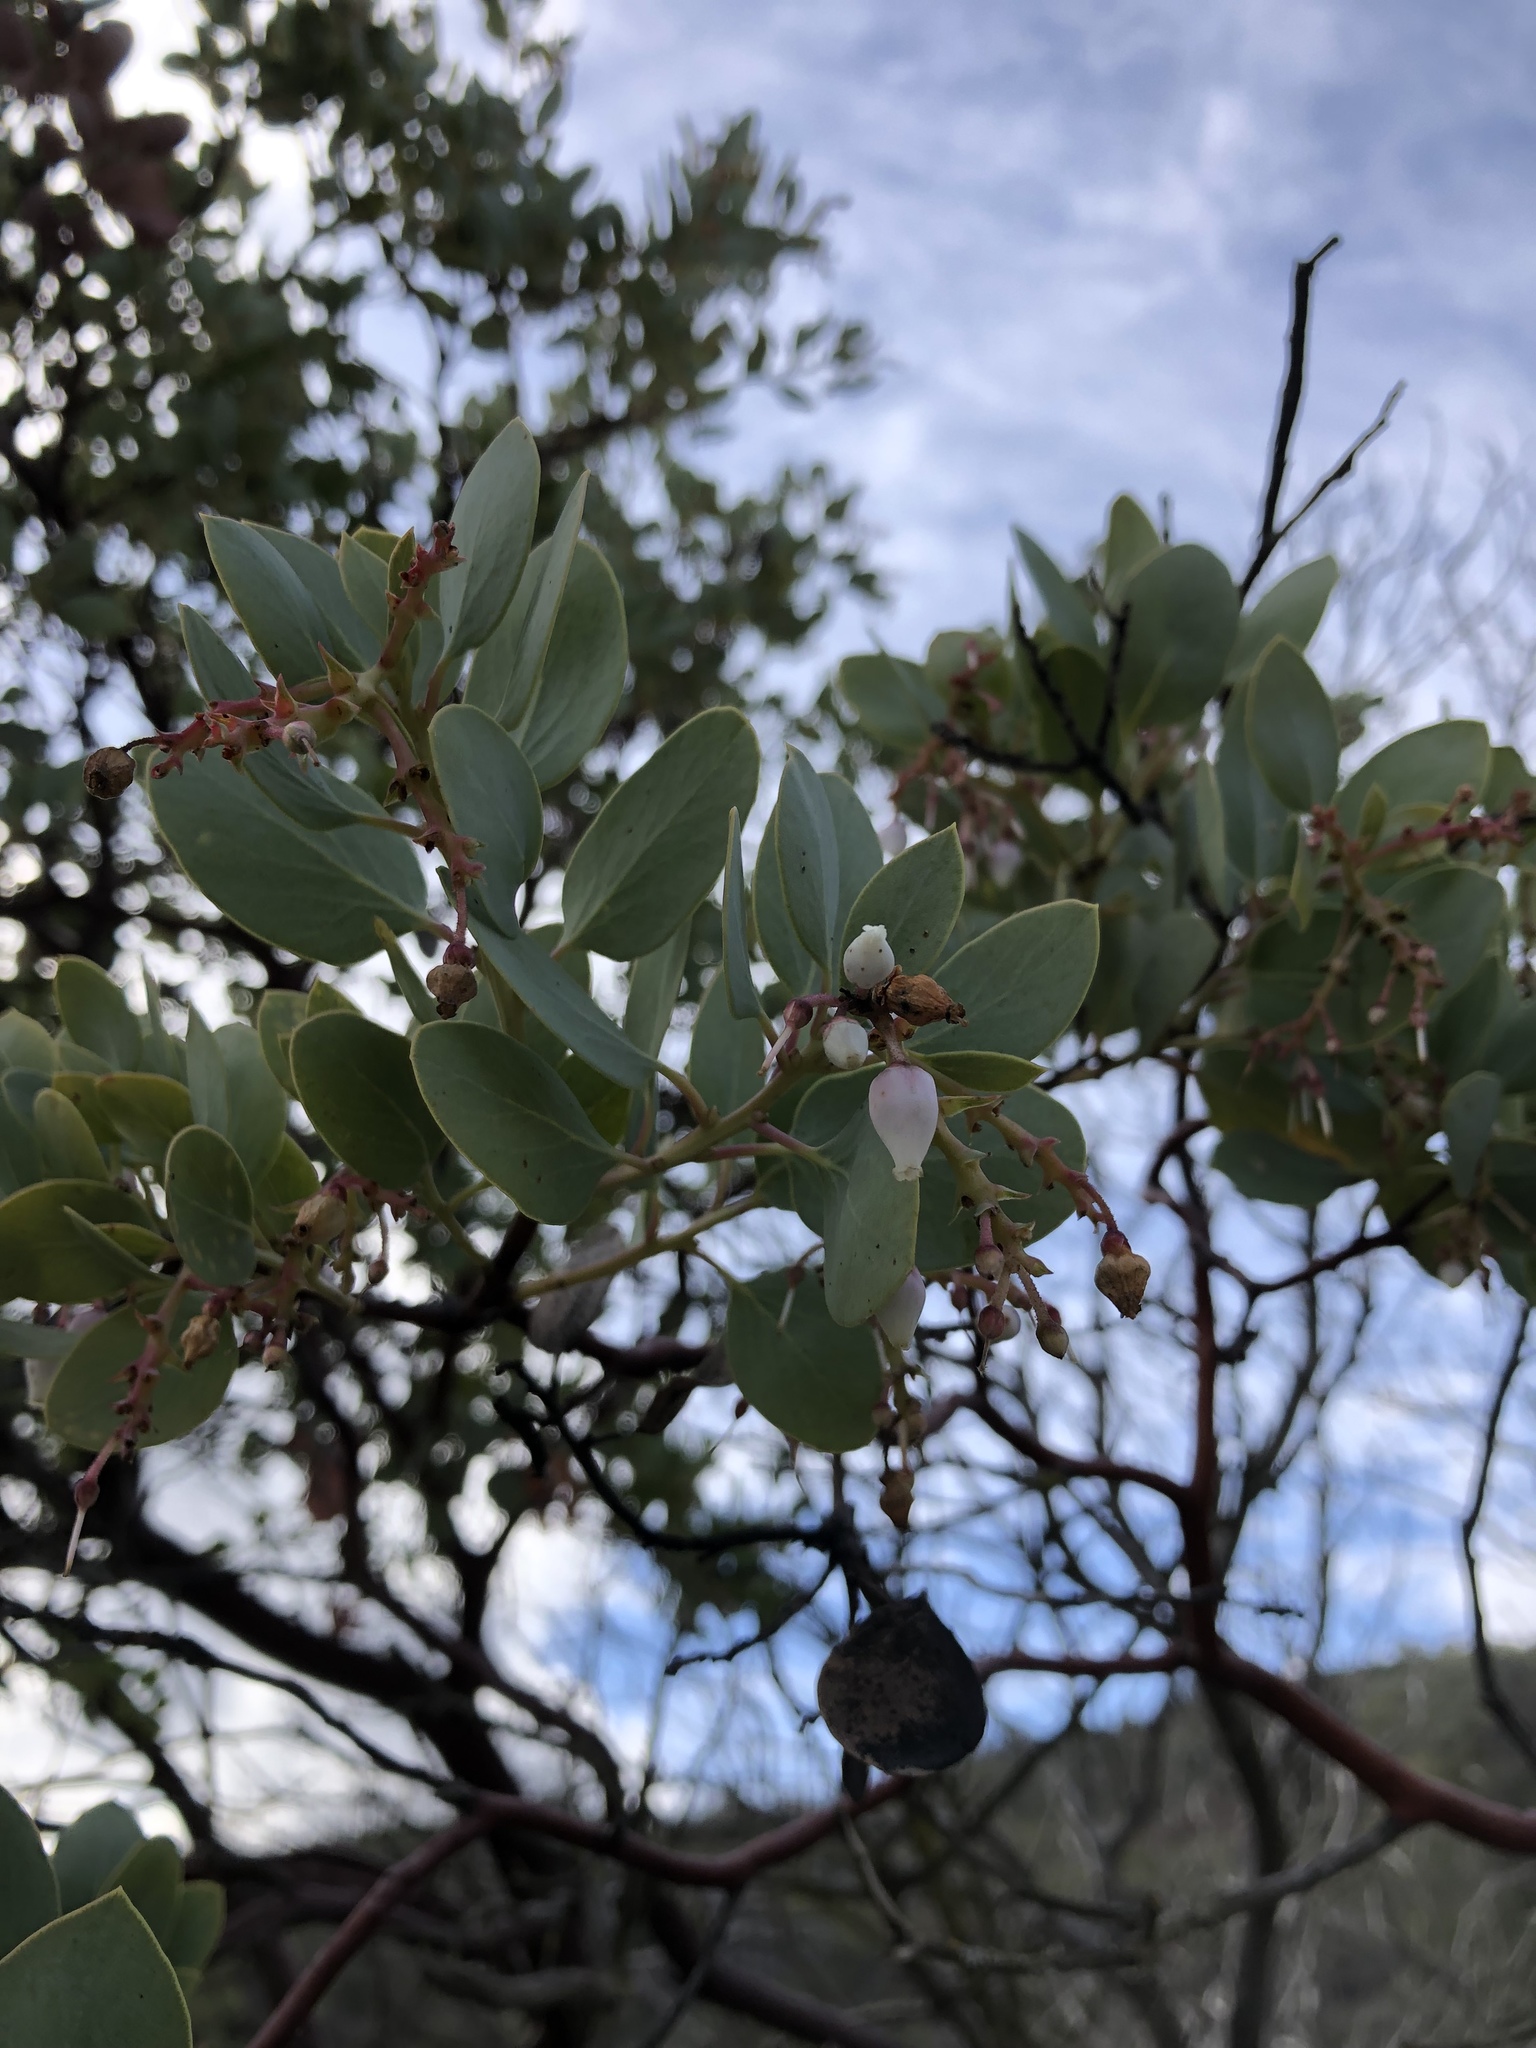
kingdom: Plantae
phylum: Tracheophyta
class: Magnoliopsida
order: Ericales
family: Ericaceae
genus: Arctostaphylos
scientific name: Arctostaphylos glauca
